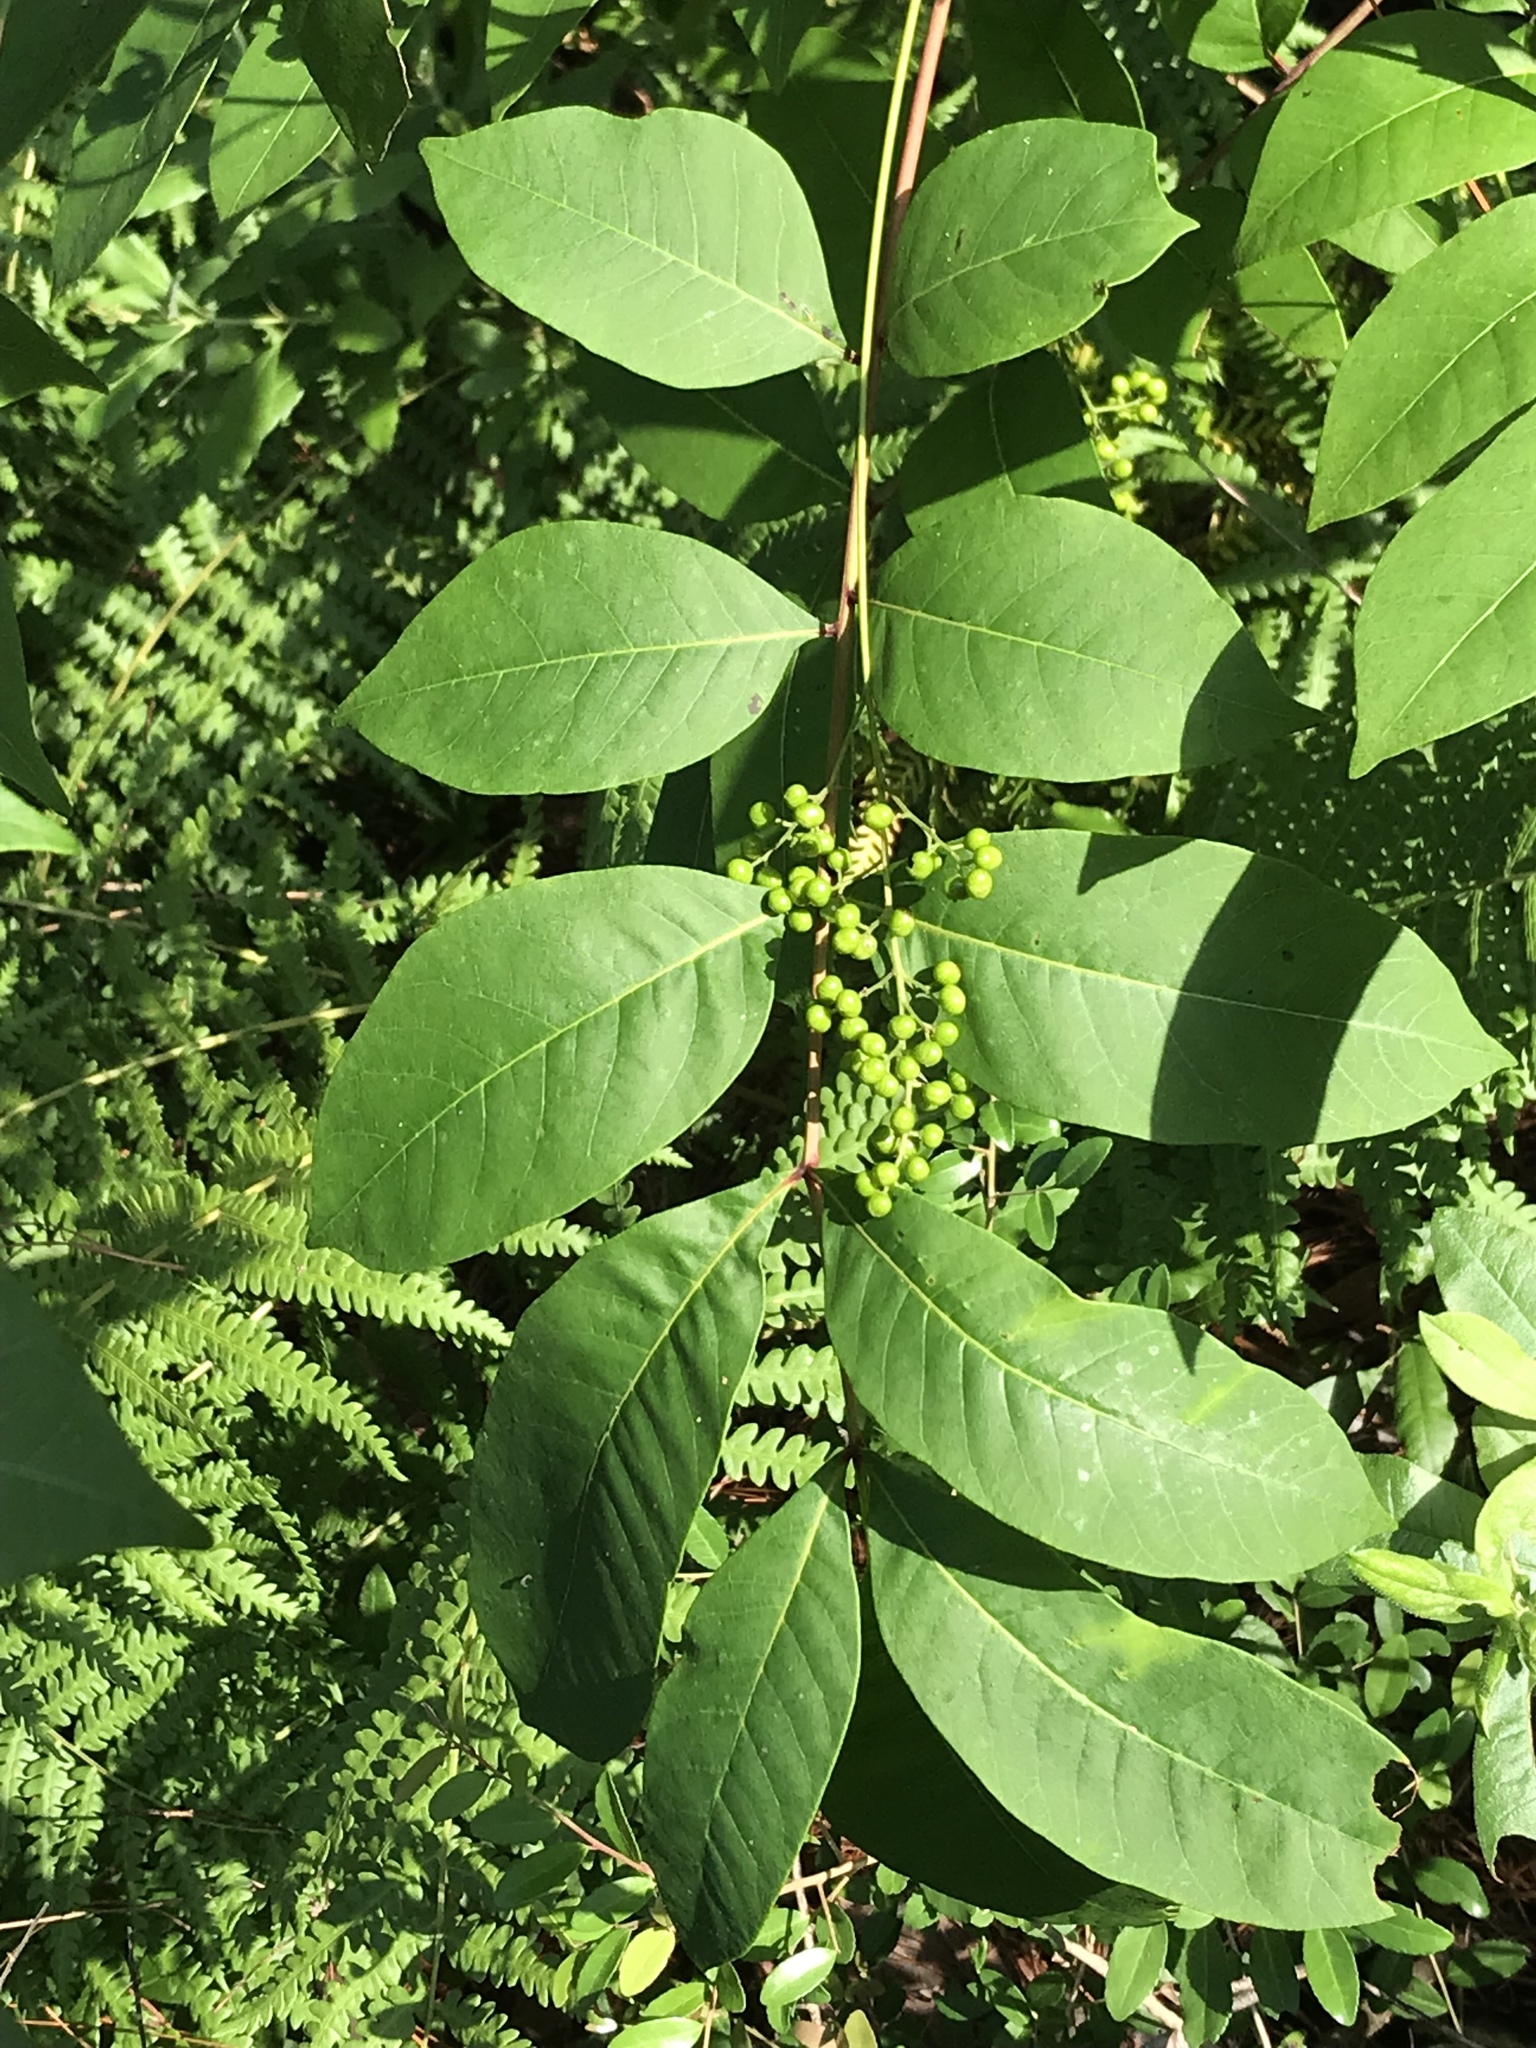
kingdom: Plantae
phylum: Tracheophyta
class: Magnoliopsida
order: Sapindales
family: Anacardiaceae
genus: Toxicodendron
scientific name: Toxicodendron vernix
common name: Poison sumac
